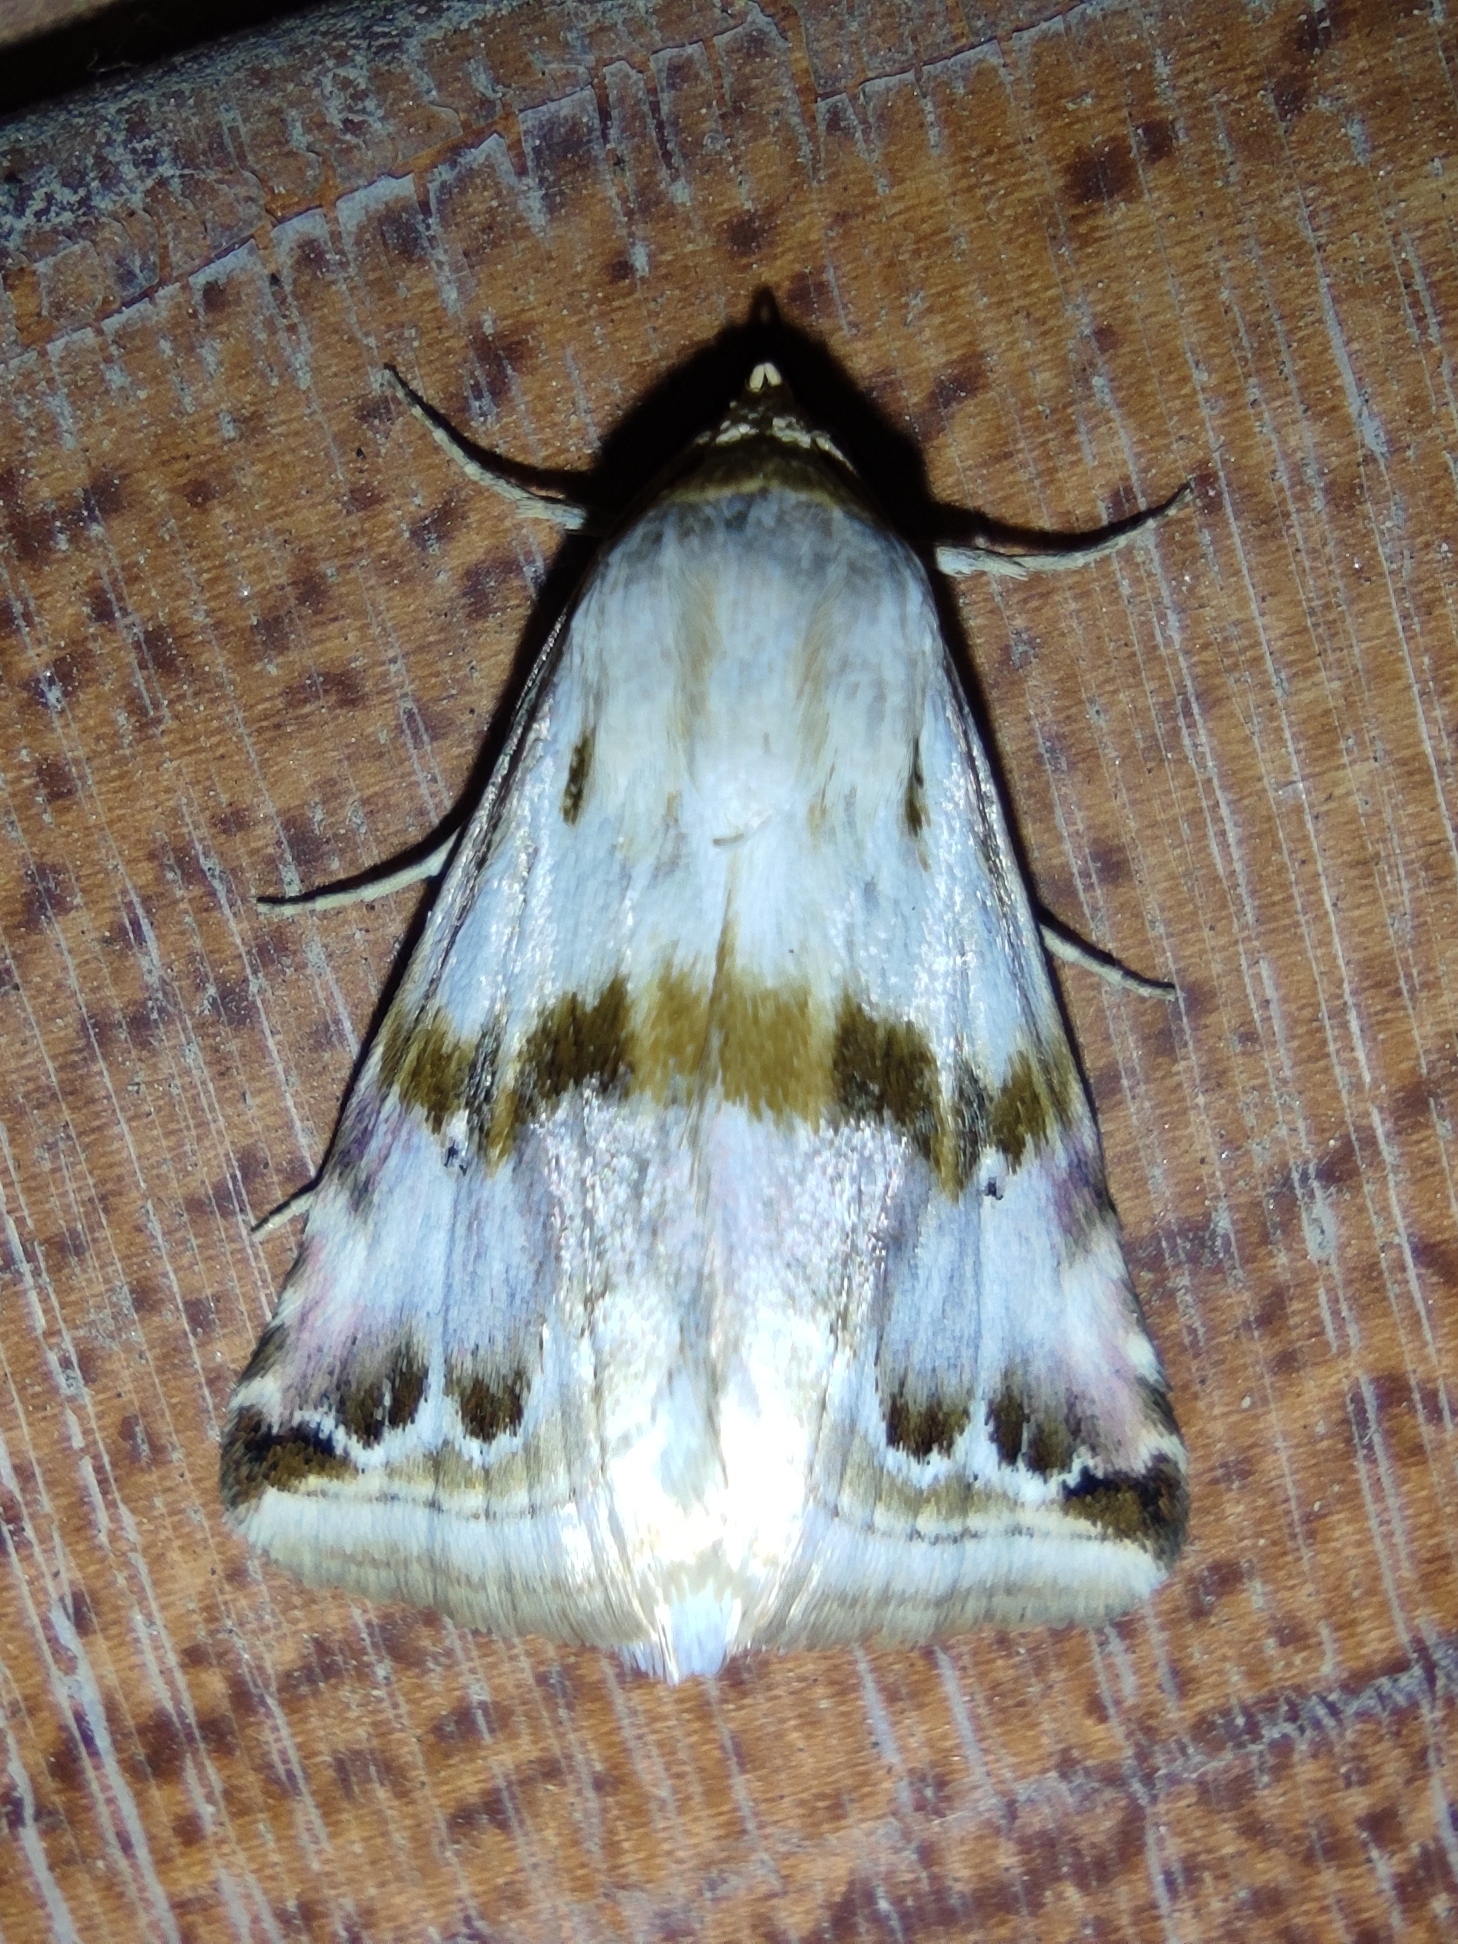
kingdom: Animalia
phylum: Arthropoda
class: Insecta
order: Lepidoptera
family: Noctuidae
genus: Eublemma
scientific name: Eublemma porphyrina
